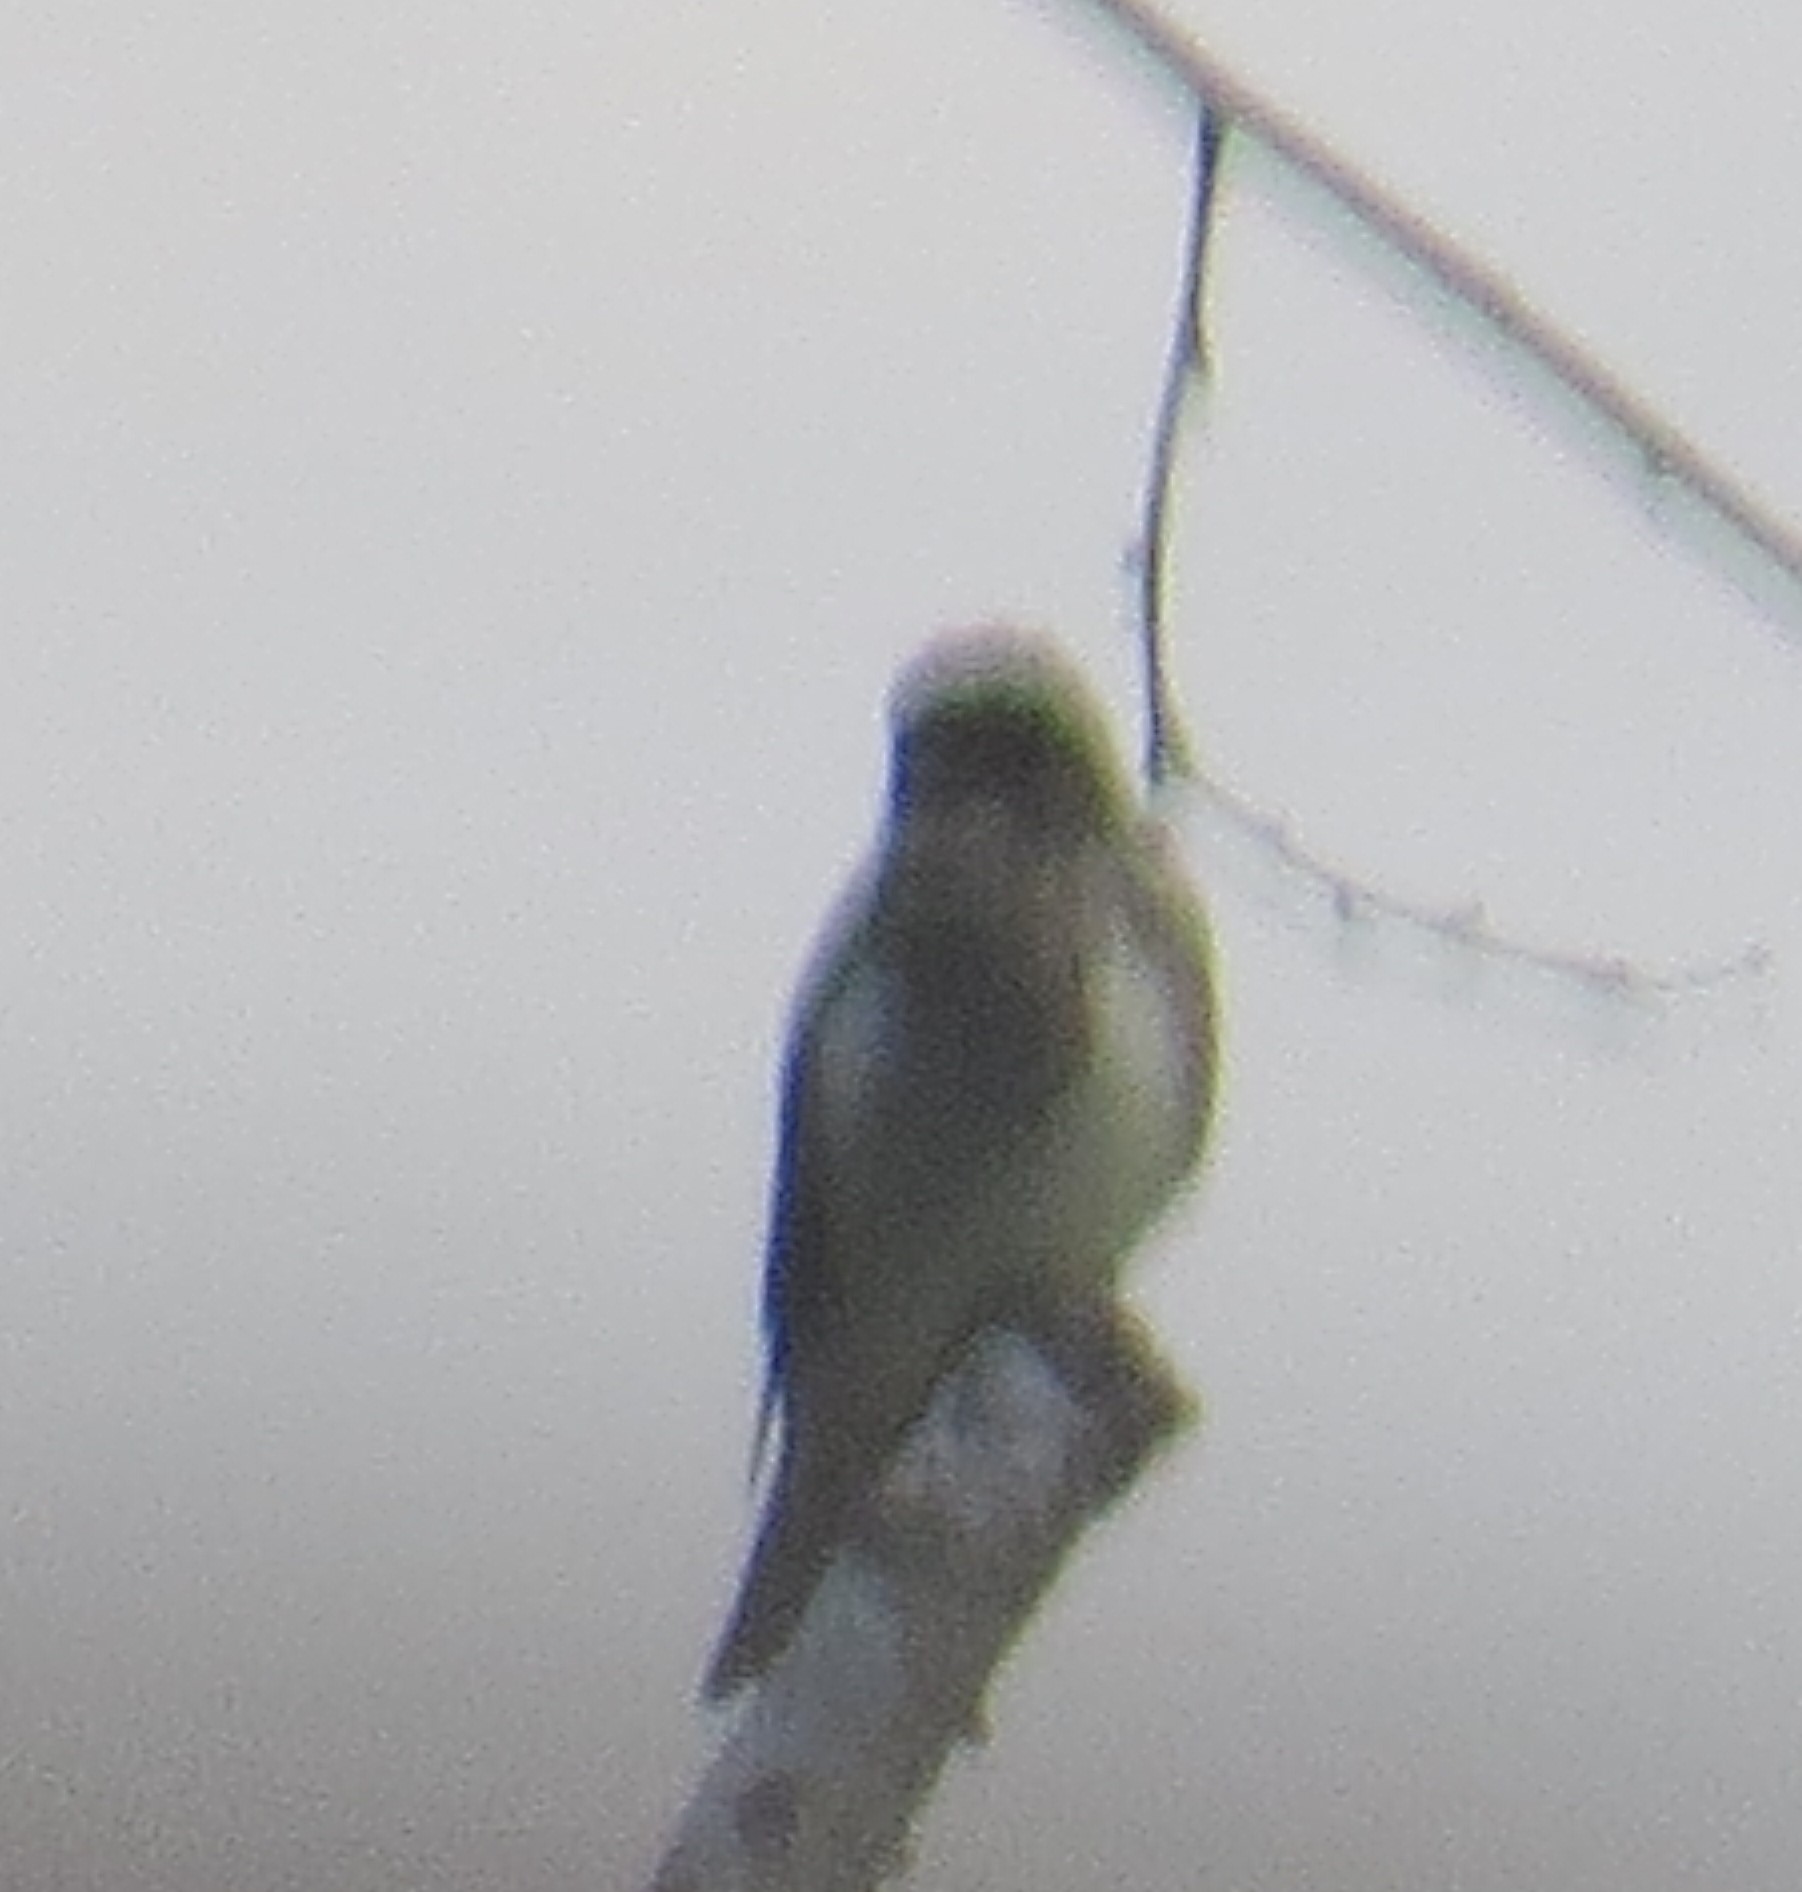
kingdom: Animalia
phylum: Chordata
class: Aves
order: Passeriformes
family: Tyrannidae
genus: Contopus
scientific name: Contopus cooperi
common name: Olive-sided flycatcher
